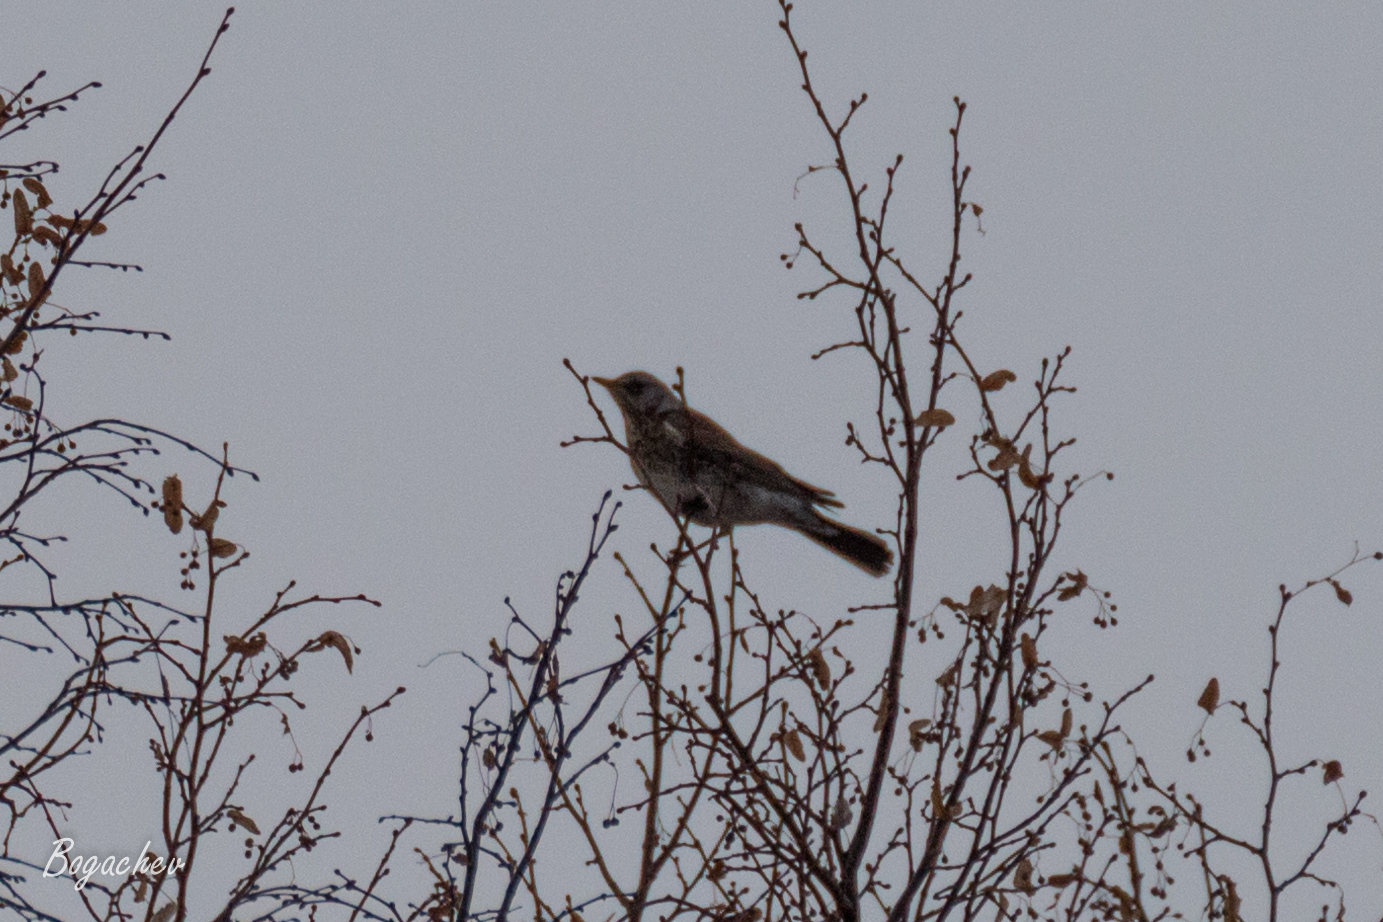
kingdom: Animalia
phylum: Chordata
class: Aves
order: Passeriformes
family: Turdidae
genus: Turdus
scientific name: Turdus pilaris
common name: Fieldfare
